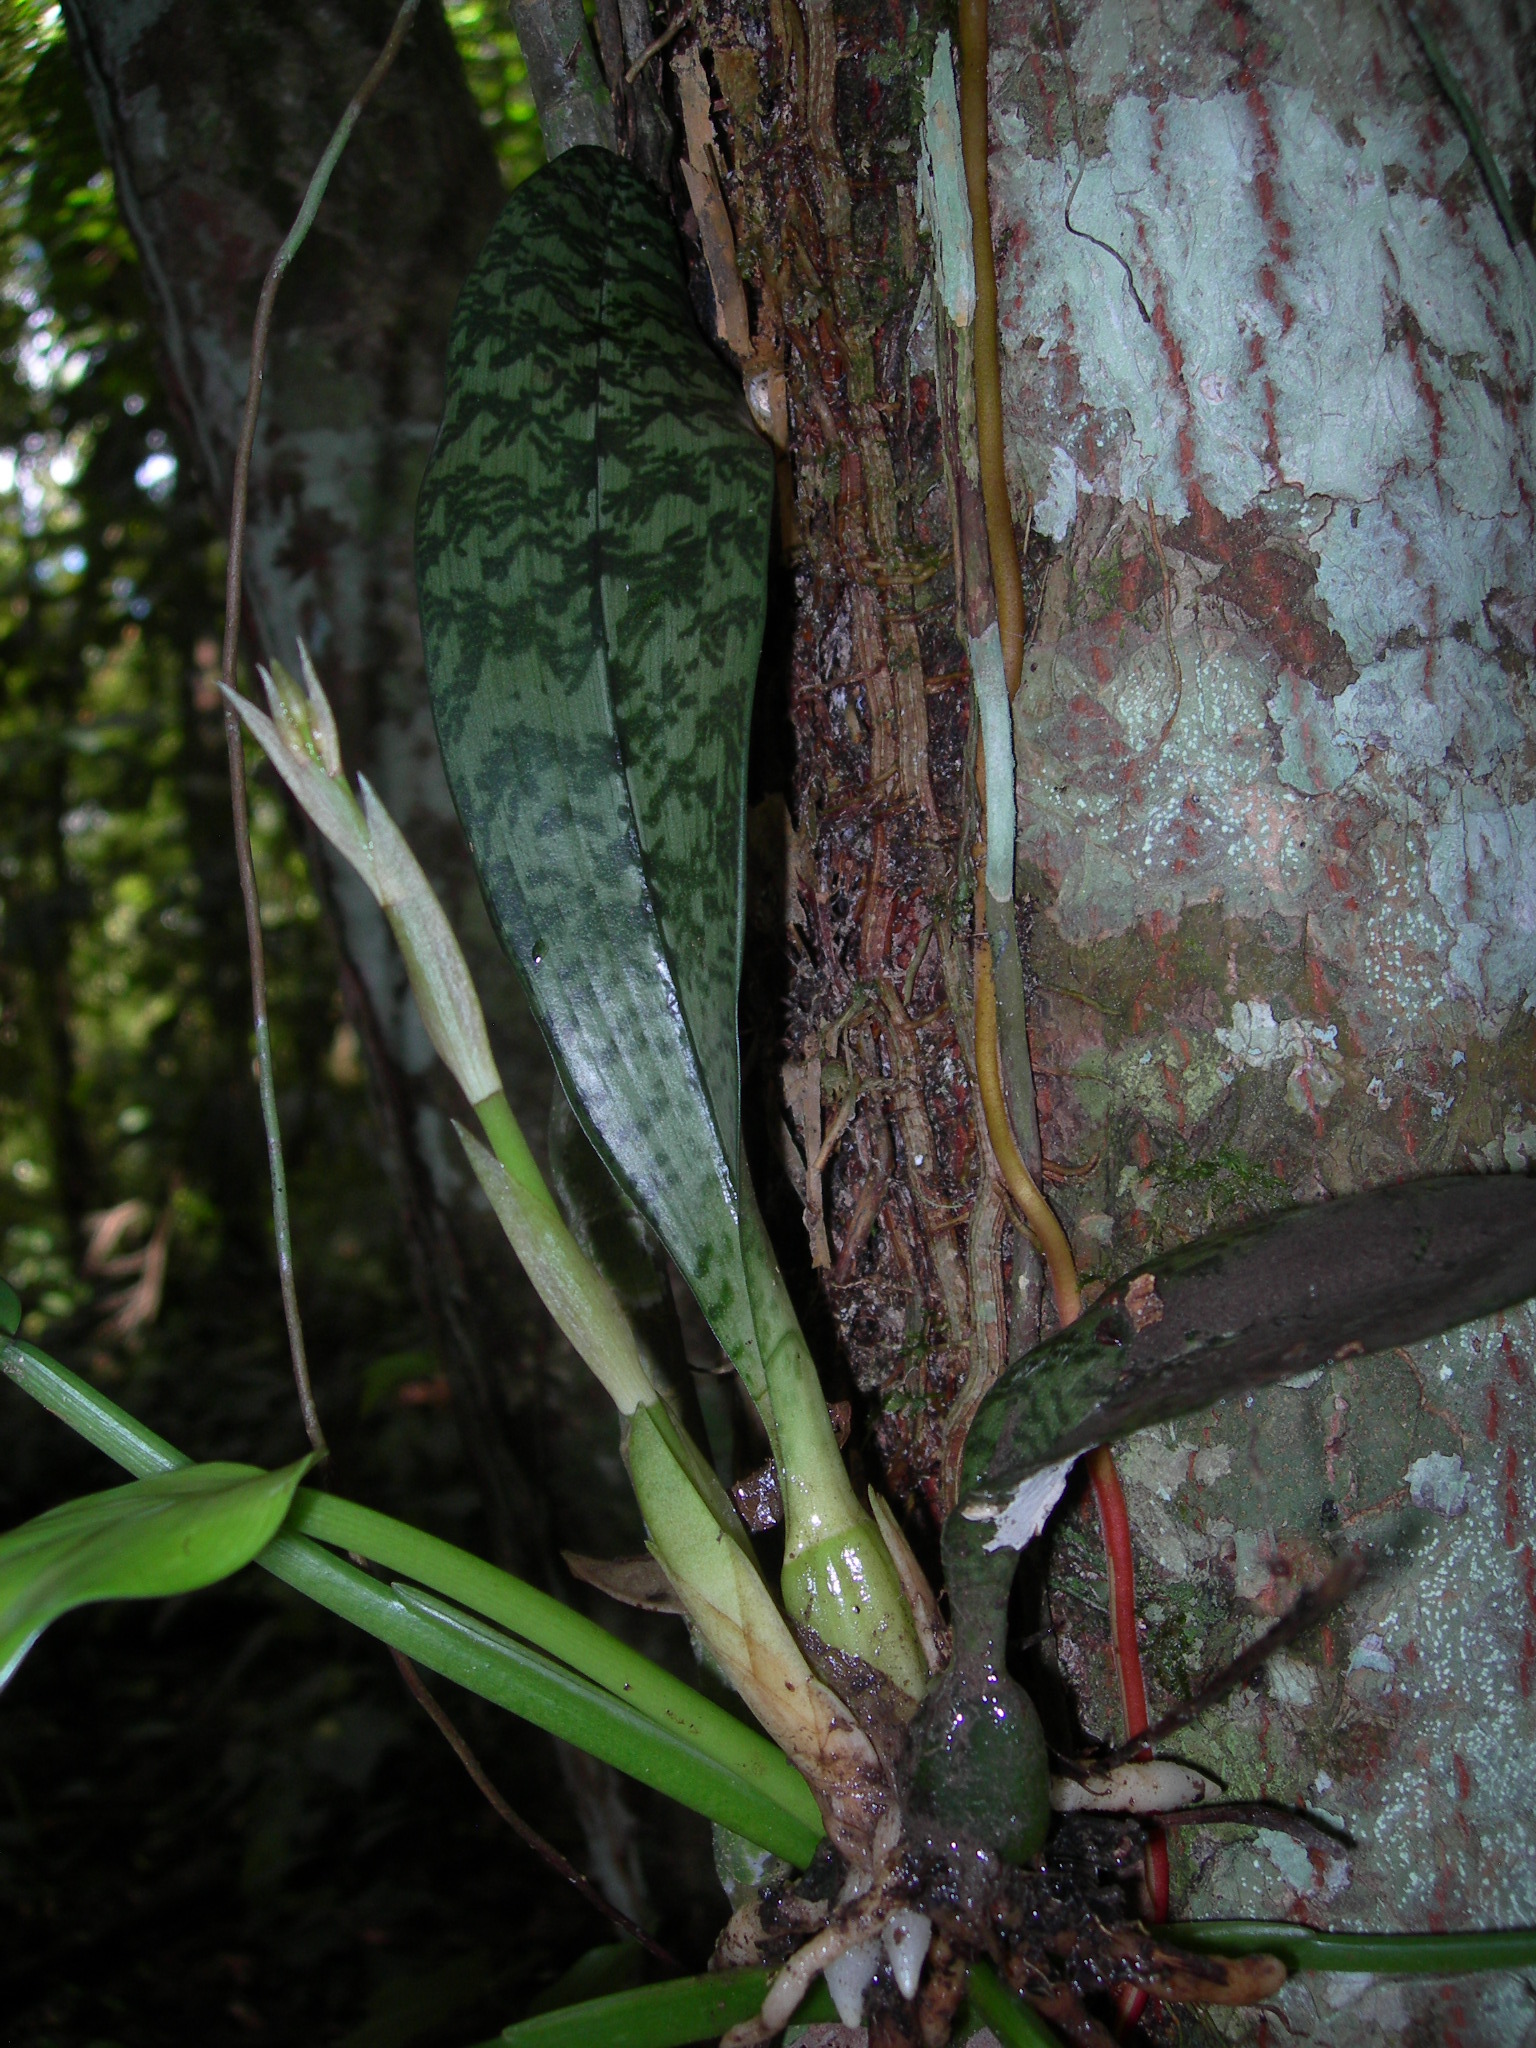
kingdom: Plantae
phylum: Tracheophyta
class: Liliopsida
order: Asparagales
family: Orchidaceae
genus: Eulophia
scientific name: Eulophia maculata
